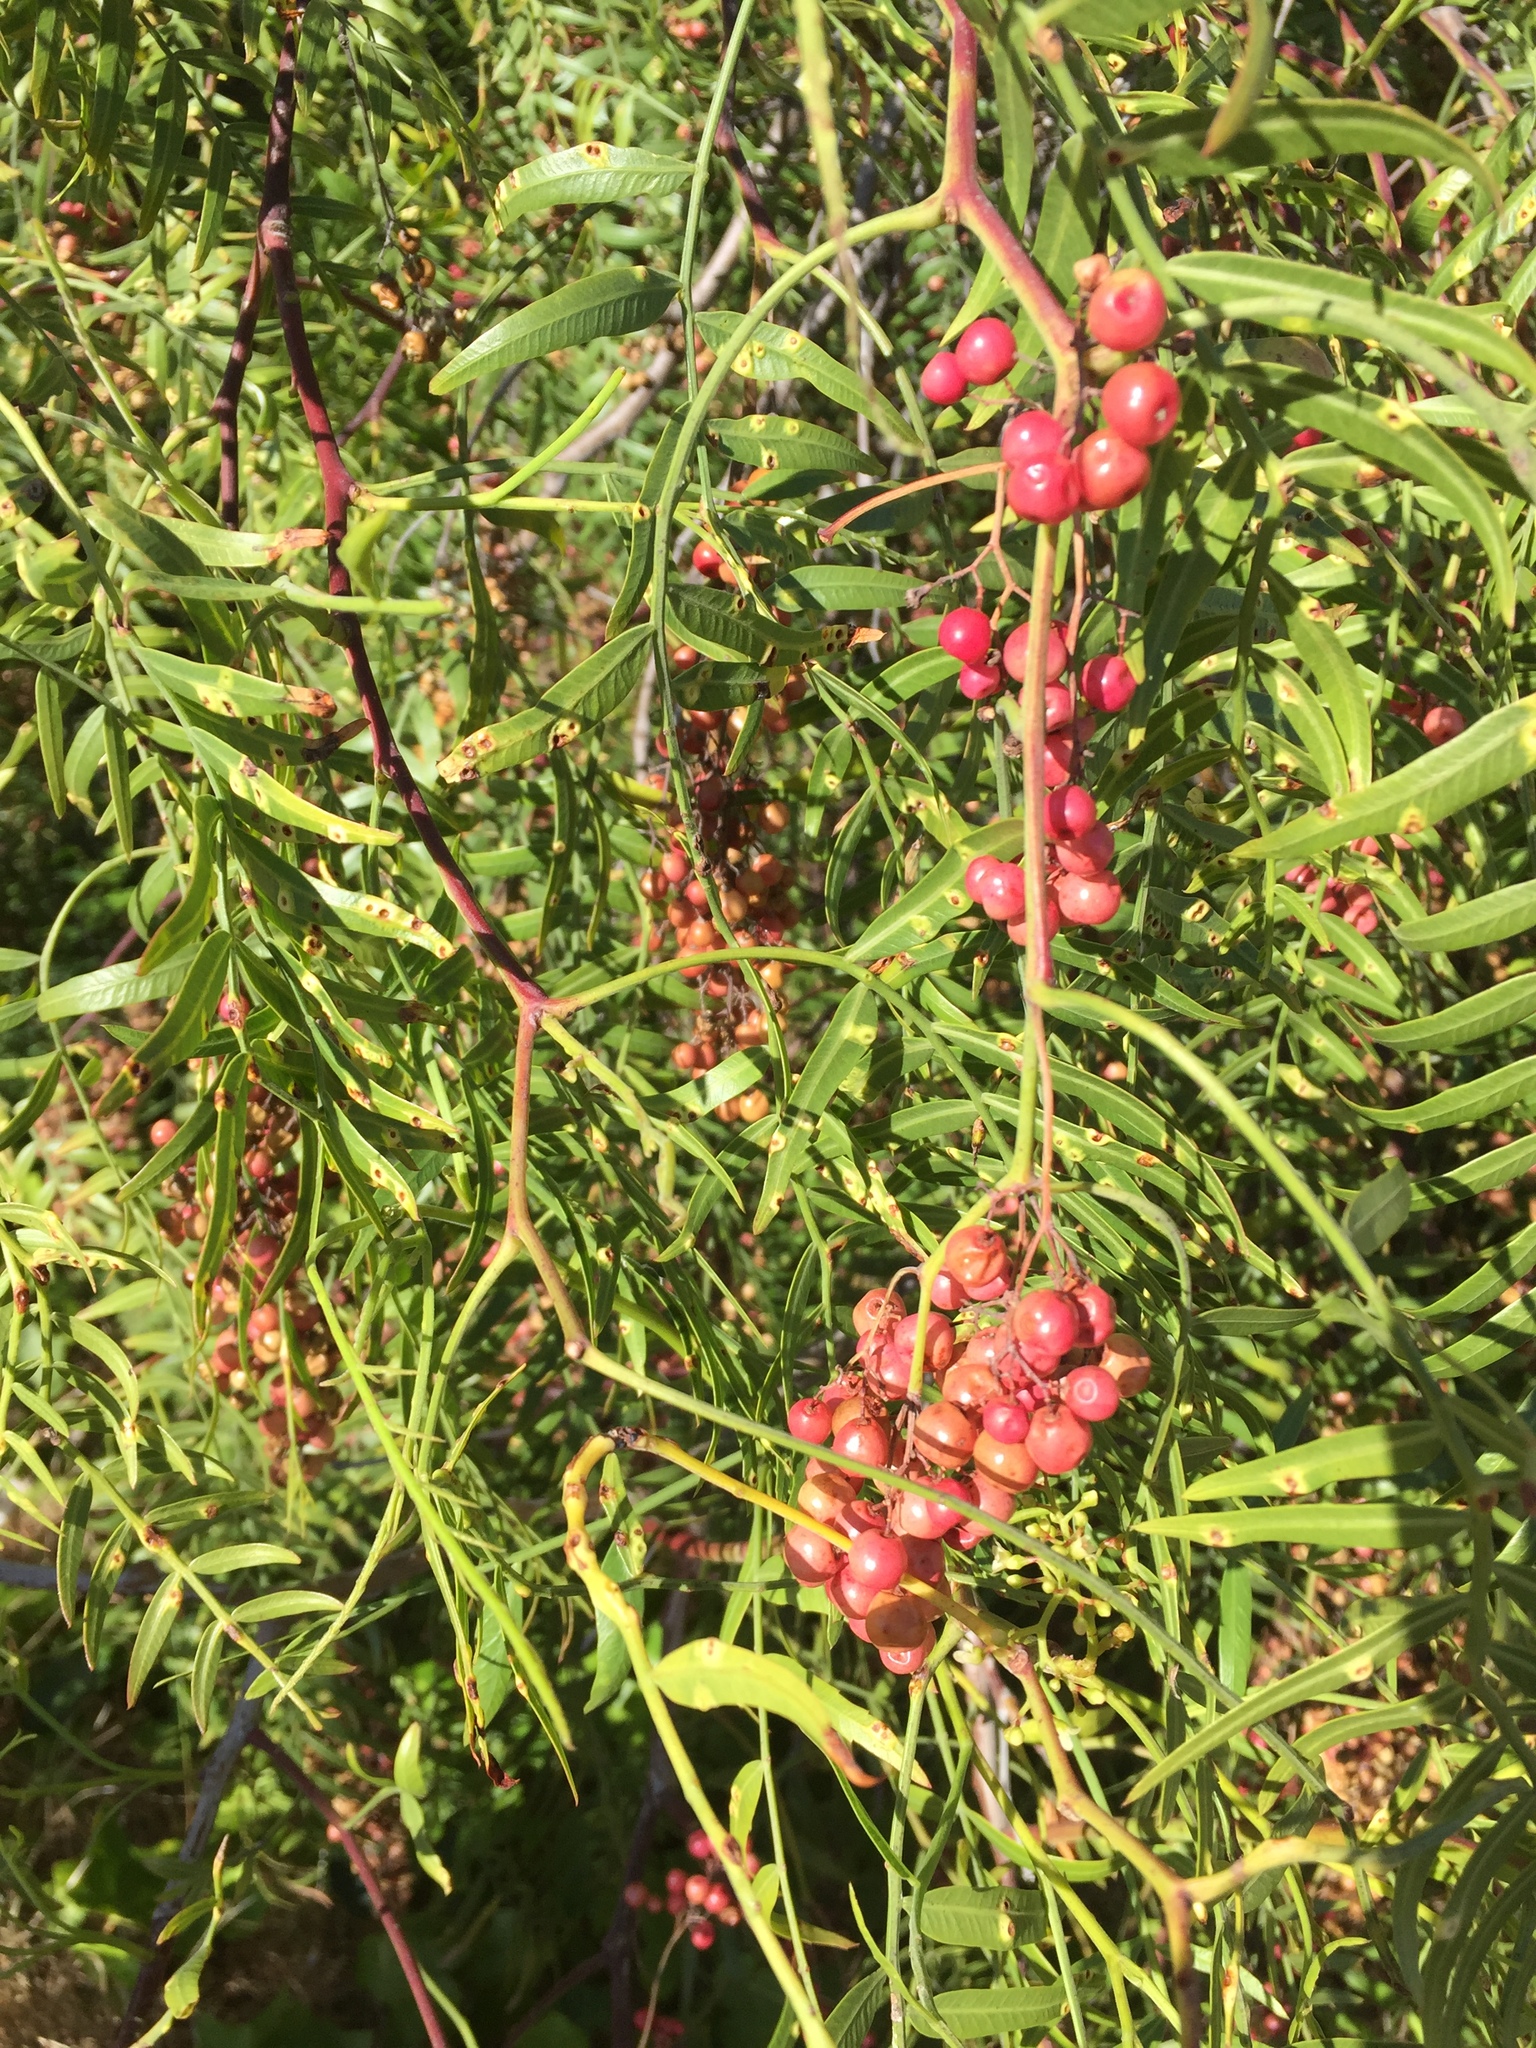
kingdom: Plantae
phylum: Tracheophyta
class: Magnoliopsida
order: Sapindales
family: Anacardiaceae
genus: Schinus
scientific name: Schinus molle
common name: Peruvian peppertree
